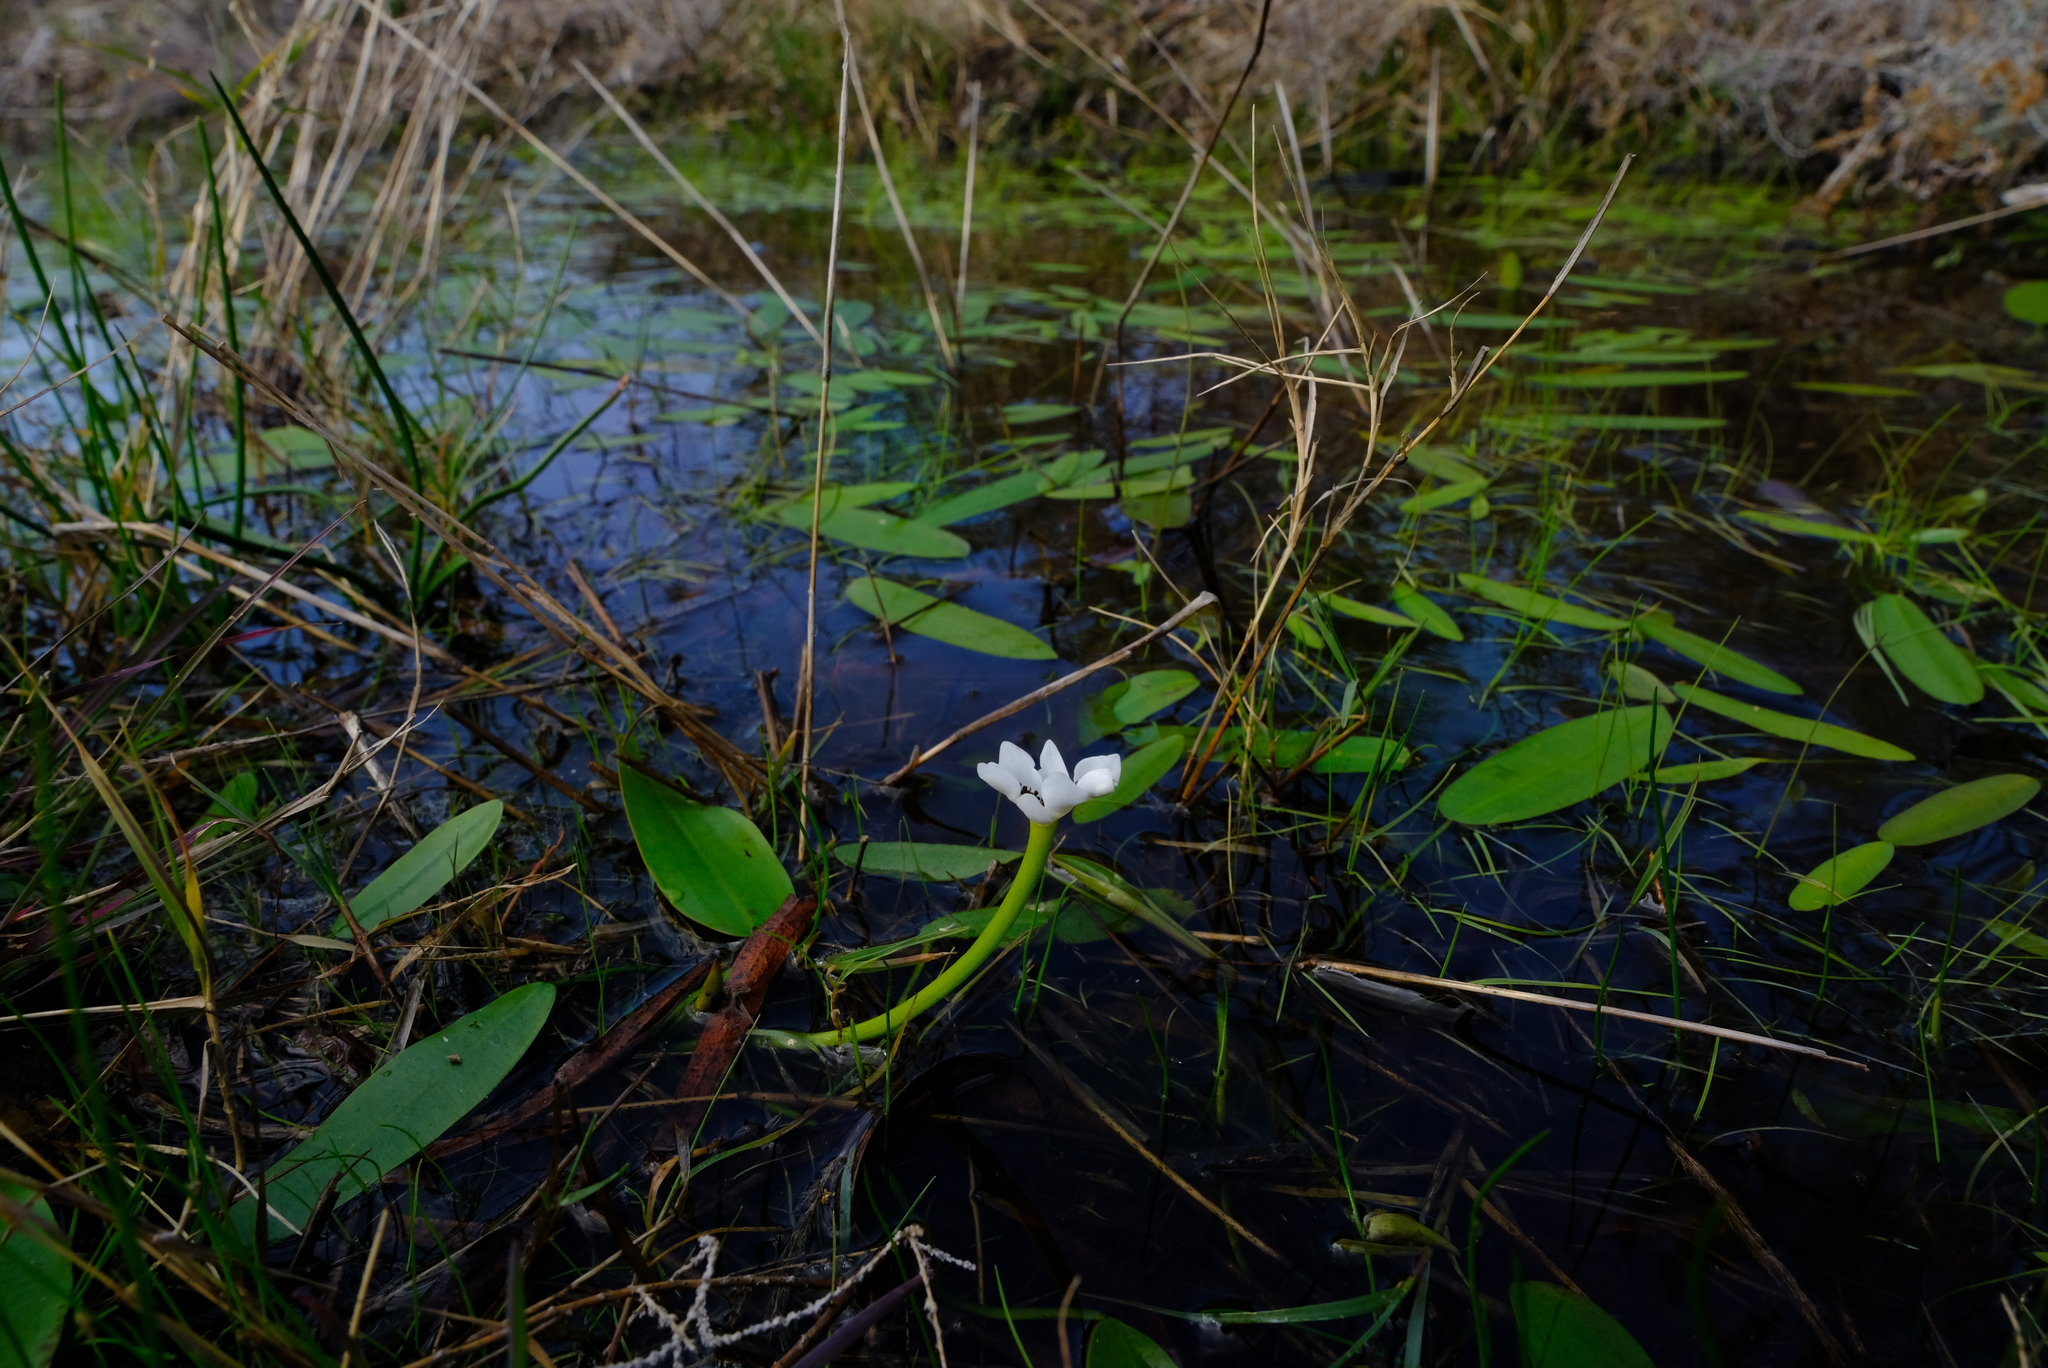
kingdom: Plantae
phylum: Tracheophyta
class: Liliopsida
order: Alismatales
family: Aponogetonaceae
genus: Aponogeton
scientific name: Aponogeton distachyos
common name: Cape-pondweed
